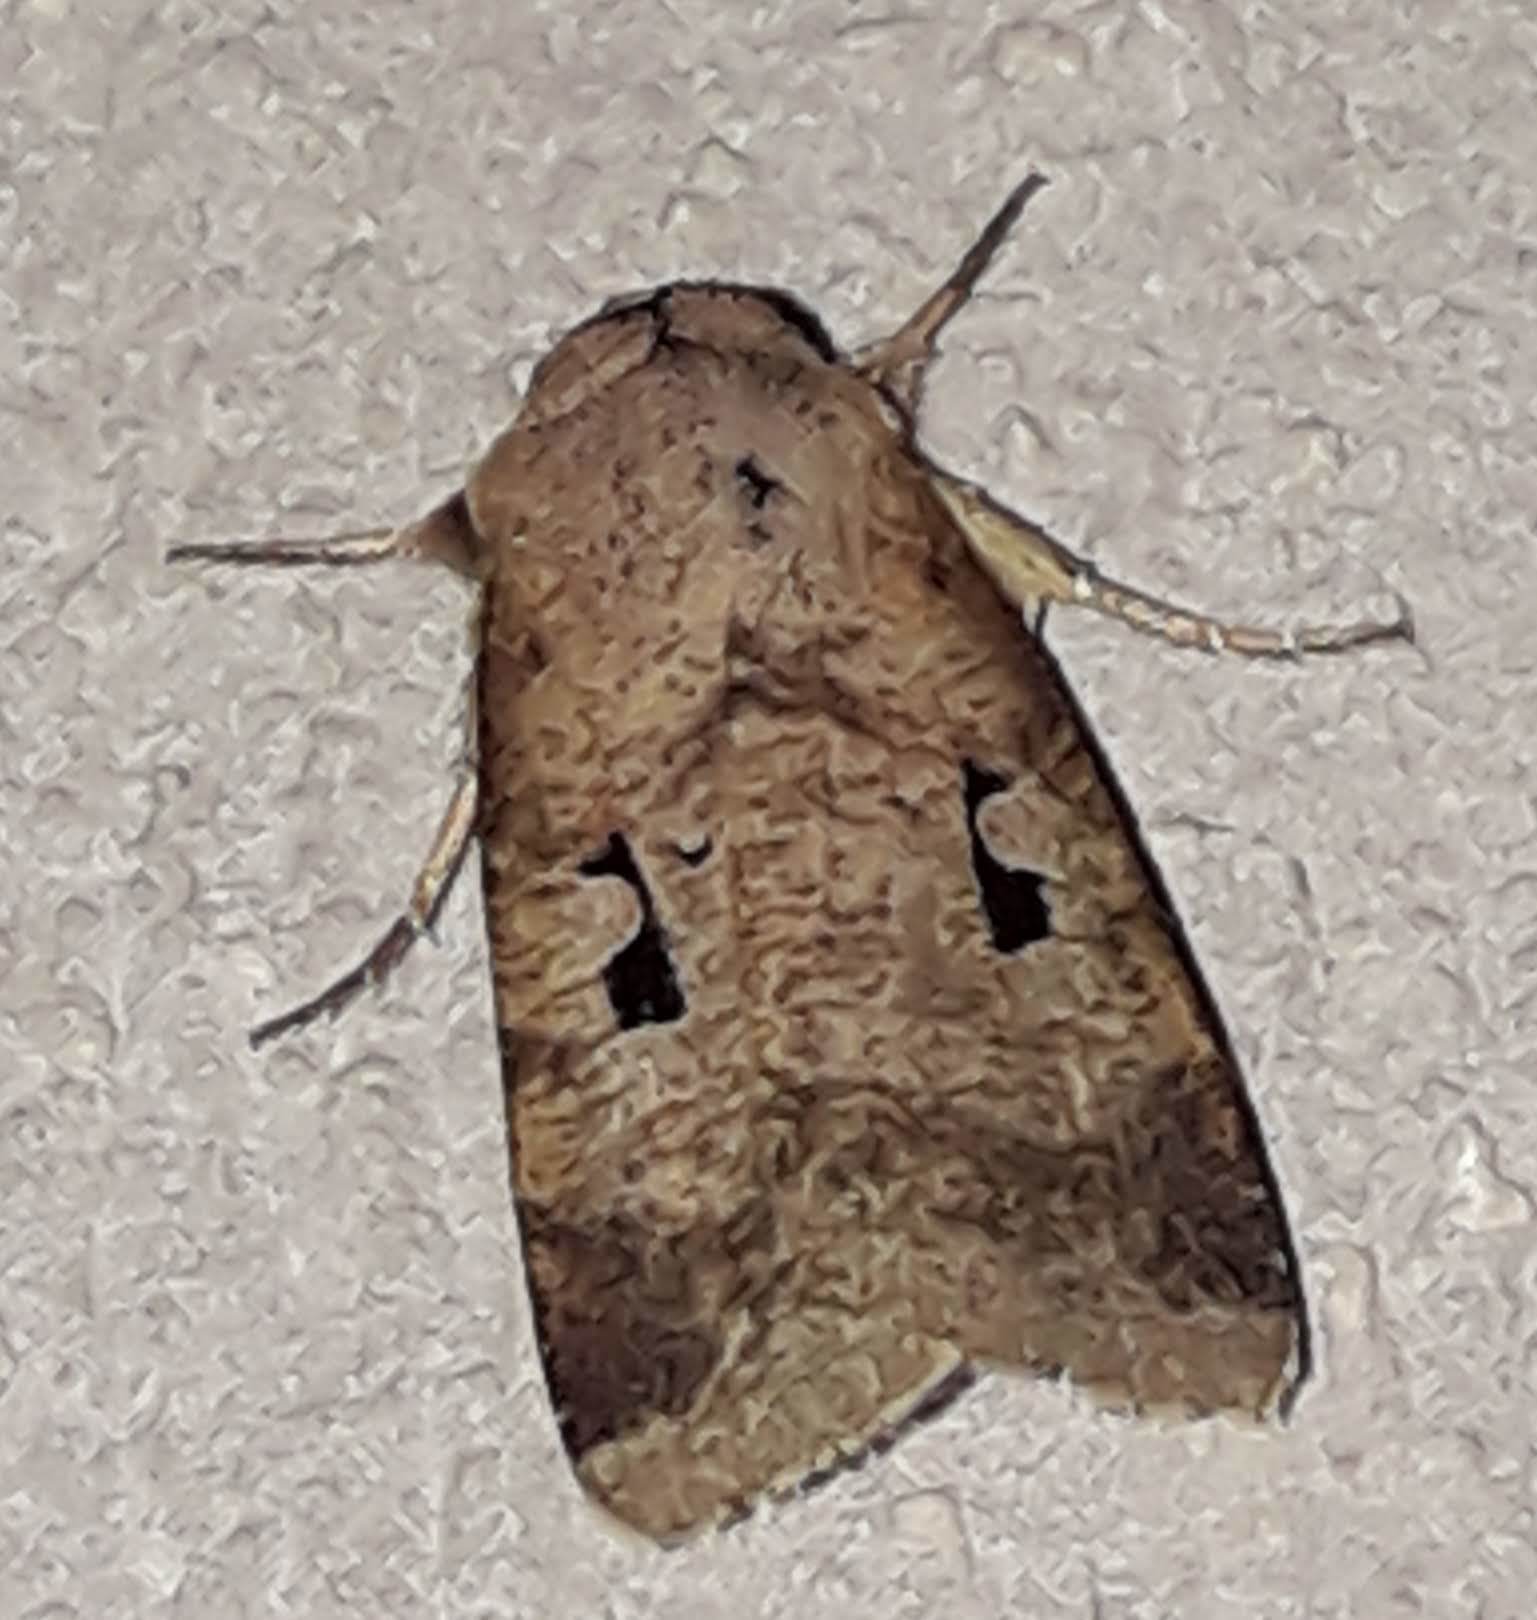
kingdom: Animalia
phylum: Arthropoda
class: Insecta
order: Lepidoptera
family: Noctuidae
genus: Praina
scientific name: Praina
